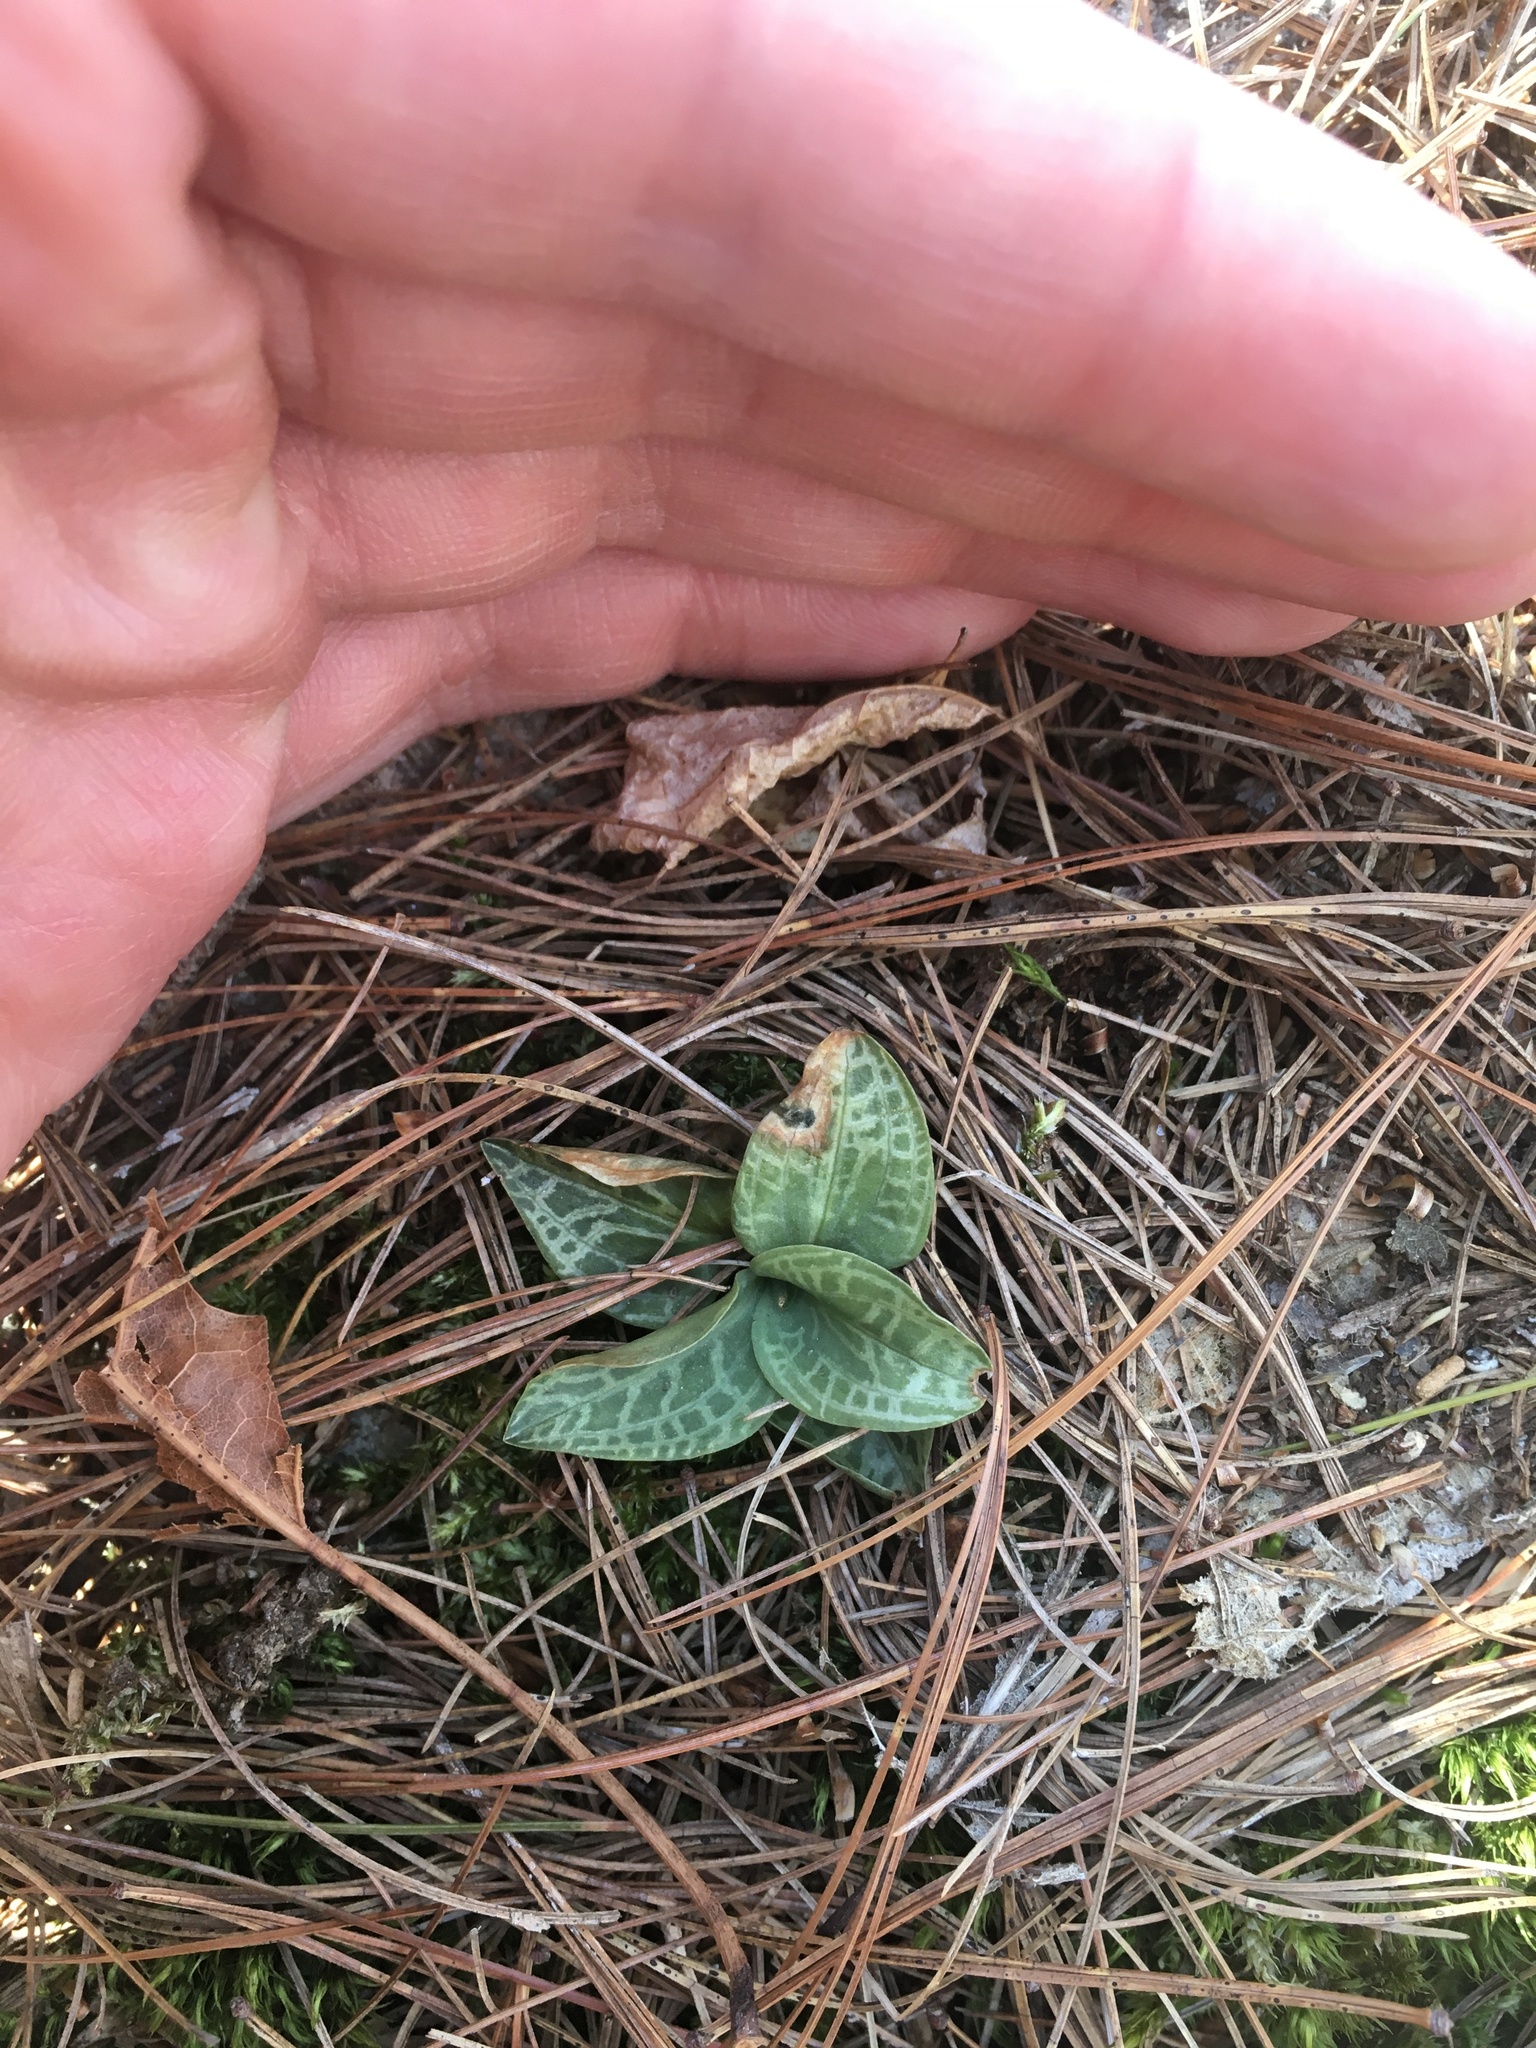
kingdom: Plantae
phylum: Tracheophyta
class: Liliopsida
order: Asparagales
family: Orchidaceae
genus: Goodyera
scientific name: Goodyera tesselata
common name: Checkered rattlesnake-plantain
